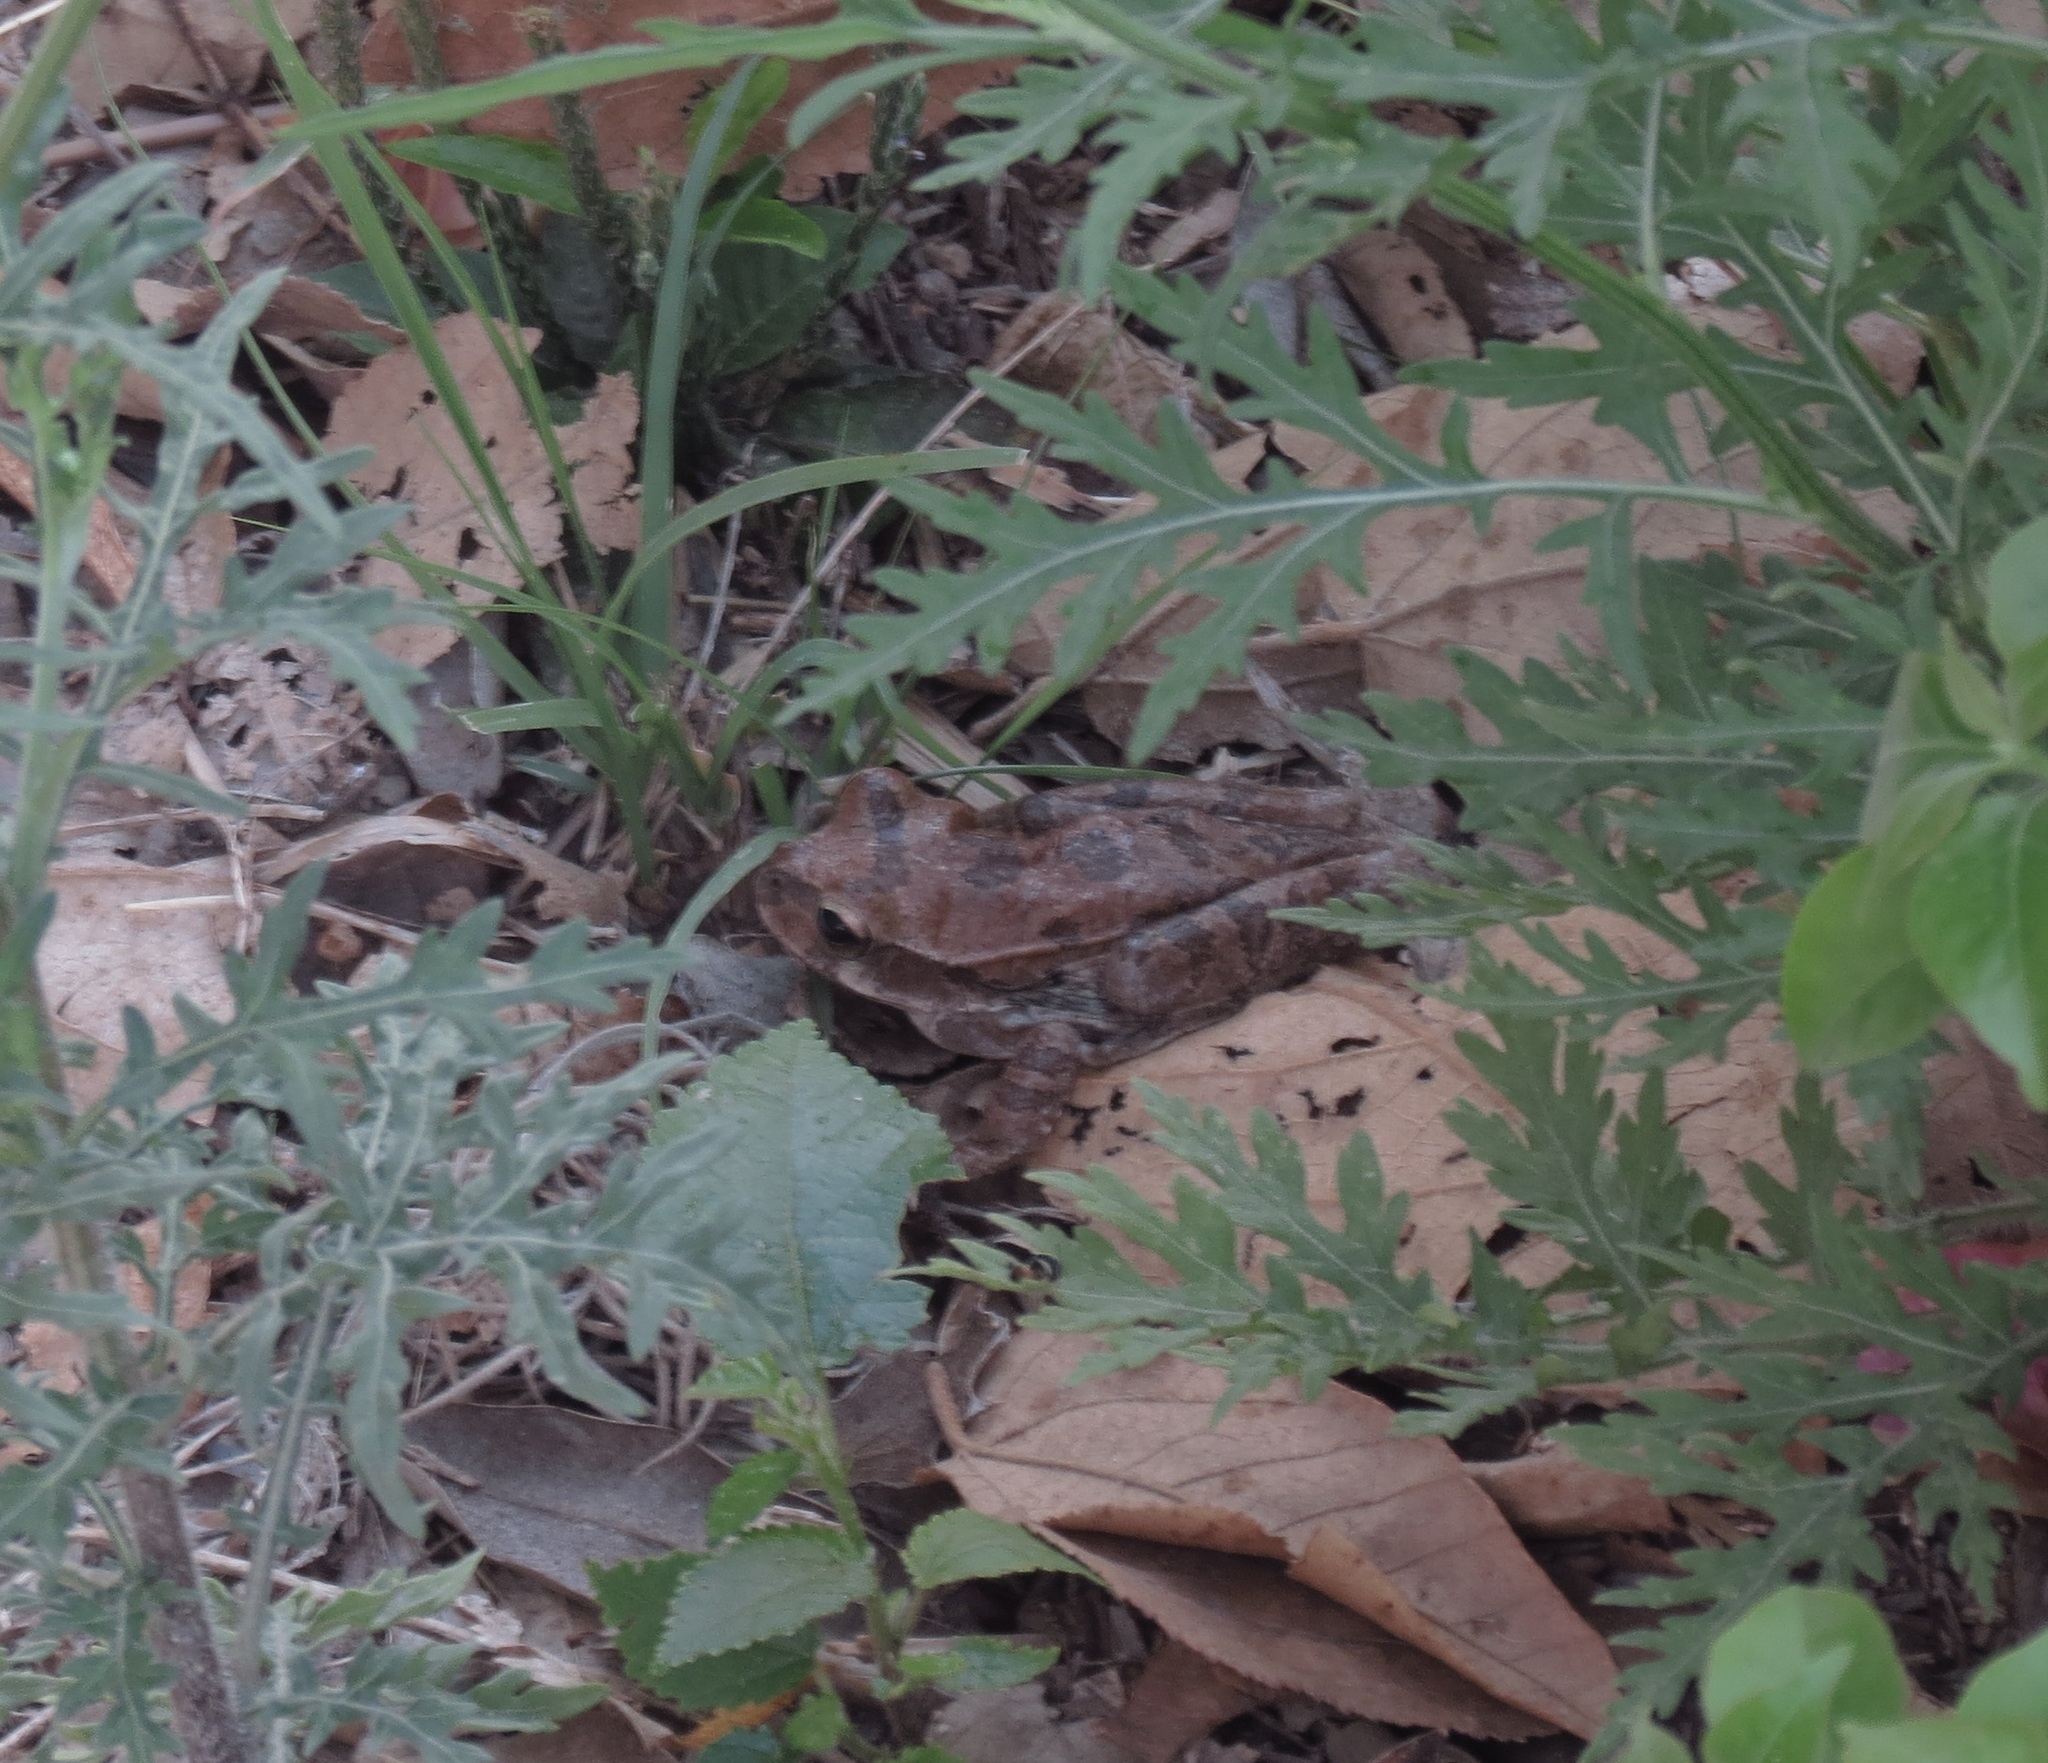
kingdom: Animalia
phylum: Chordata
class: Amphibia
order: Anura
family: Hylidae
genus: Smilisca
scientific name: Smilisca baudinii
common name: Mexican smilisca
